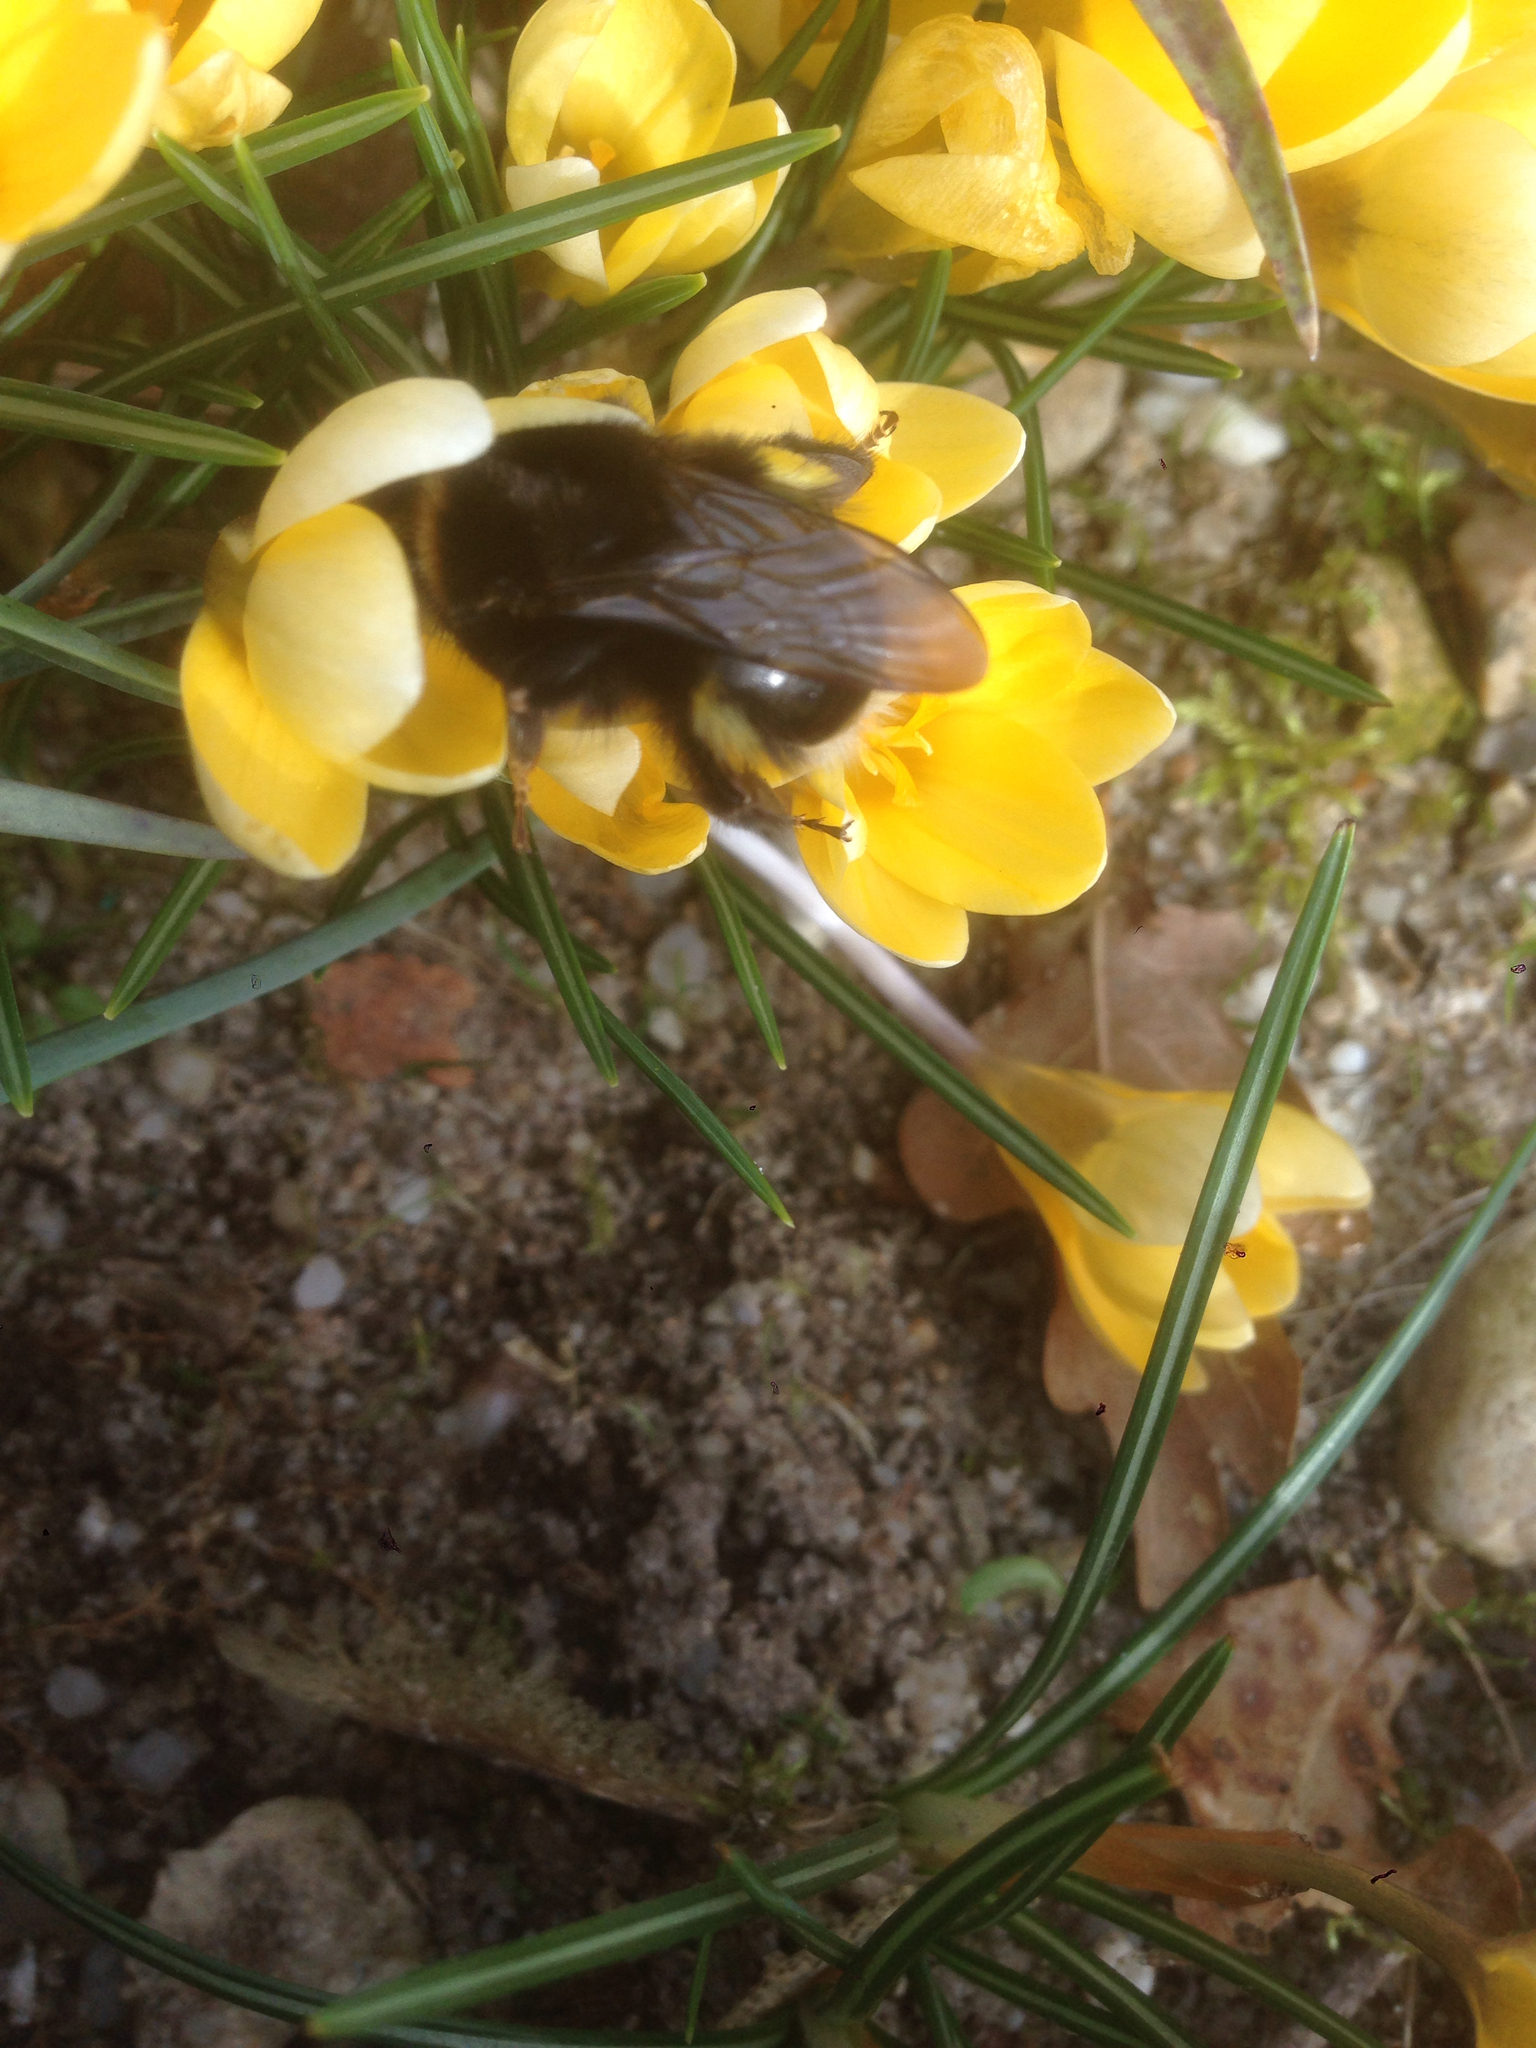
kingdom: Animalia
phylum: Arthropoda
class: Insecta
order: Hymenoptera
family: Apidae
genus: Bombus
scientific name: Bombus terrestris
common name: Buff-tailed bumblebee
